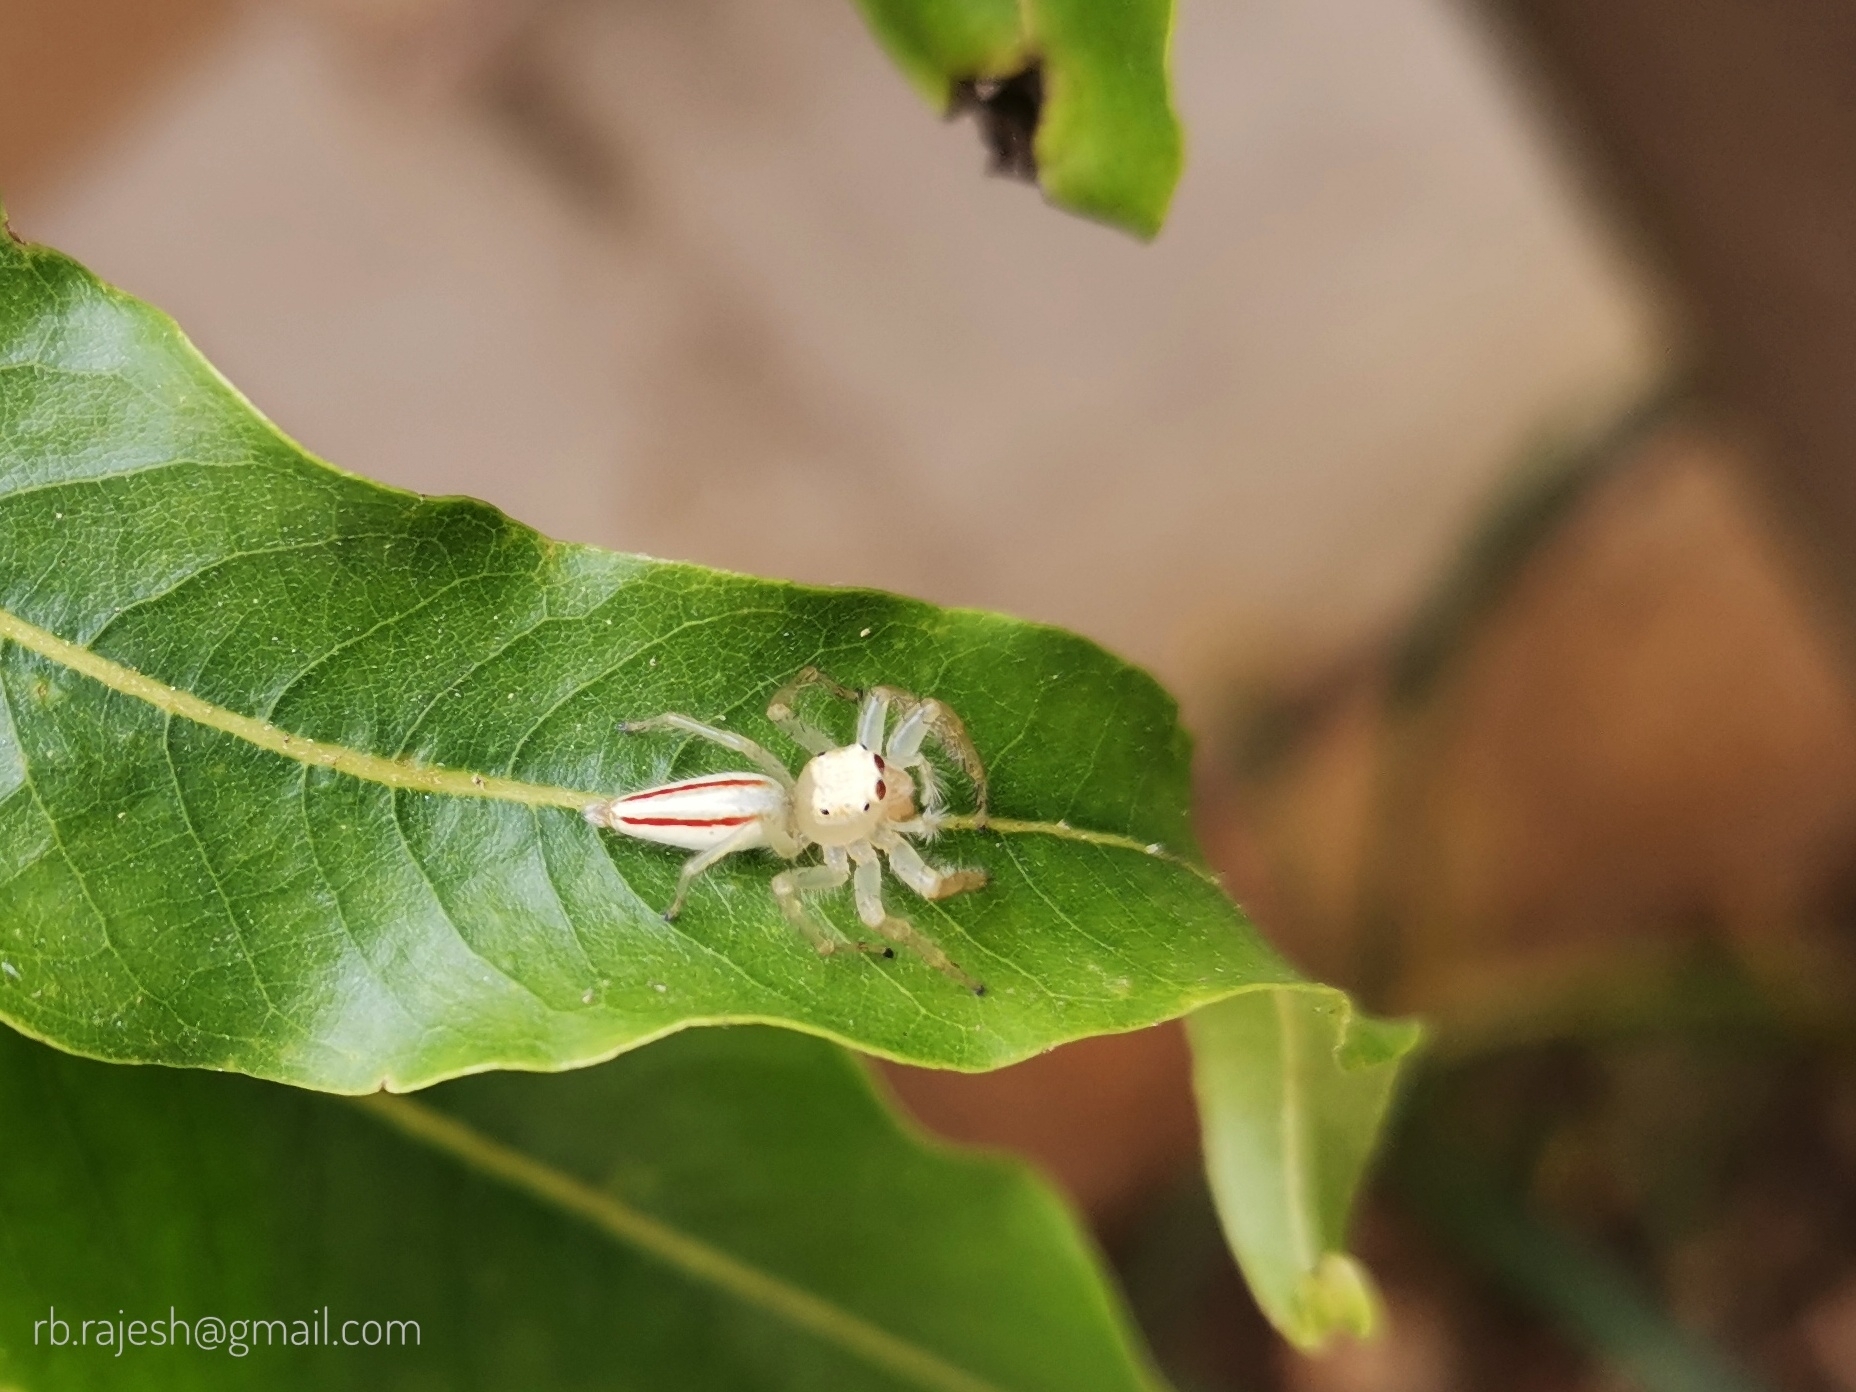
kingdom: Animalia
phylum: Arthropoda
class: Arachnida
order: Araneae
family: Salticidae
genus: Telamonia
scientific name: Telamonia dimidiata
